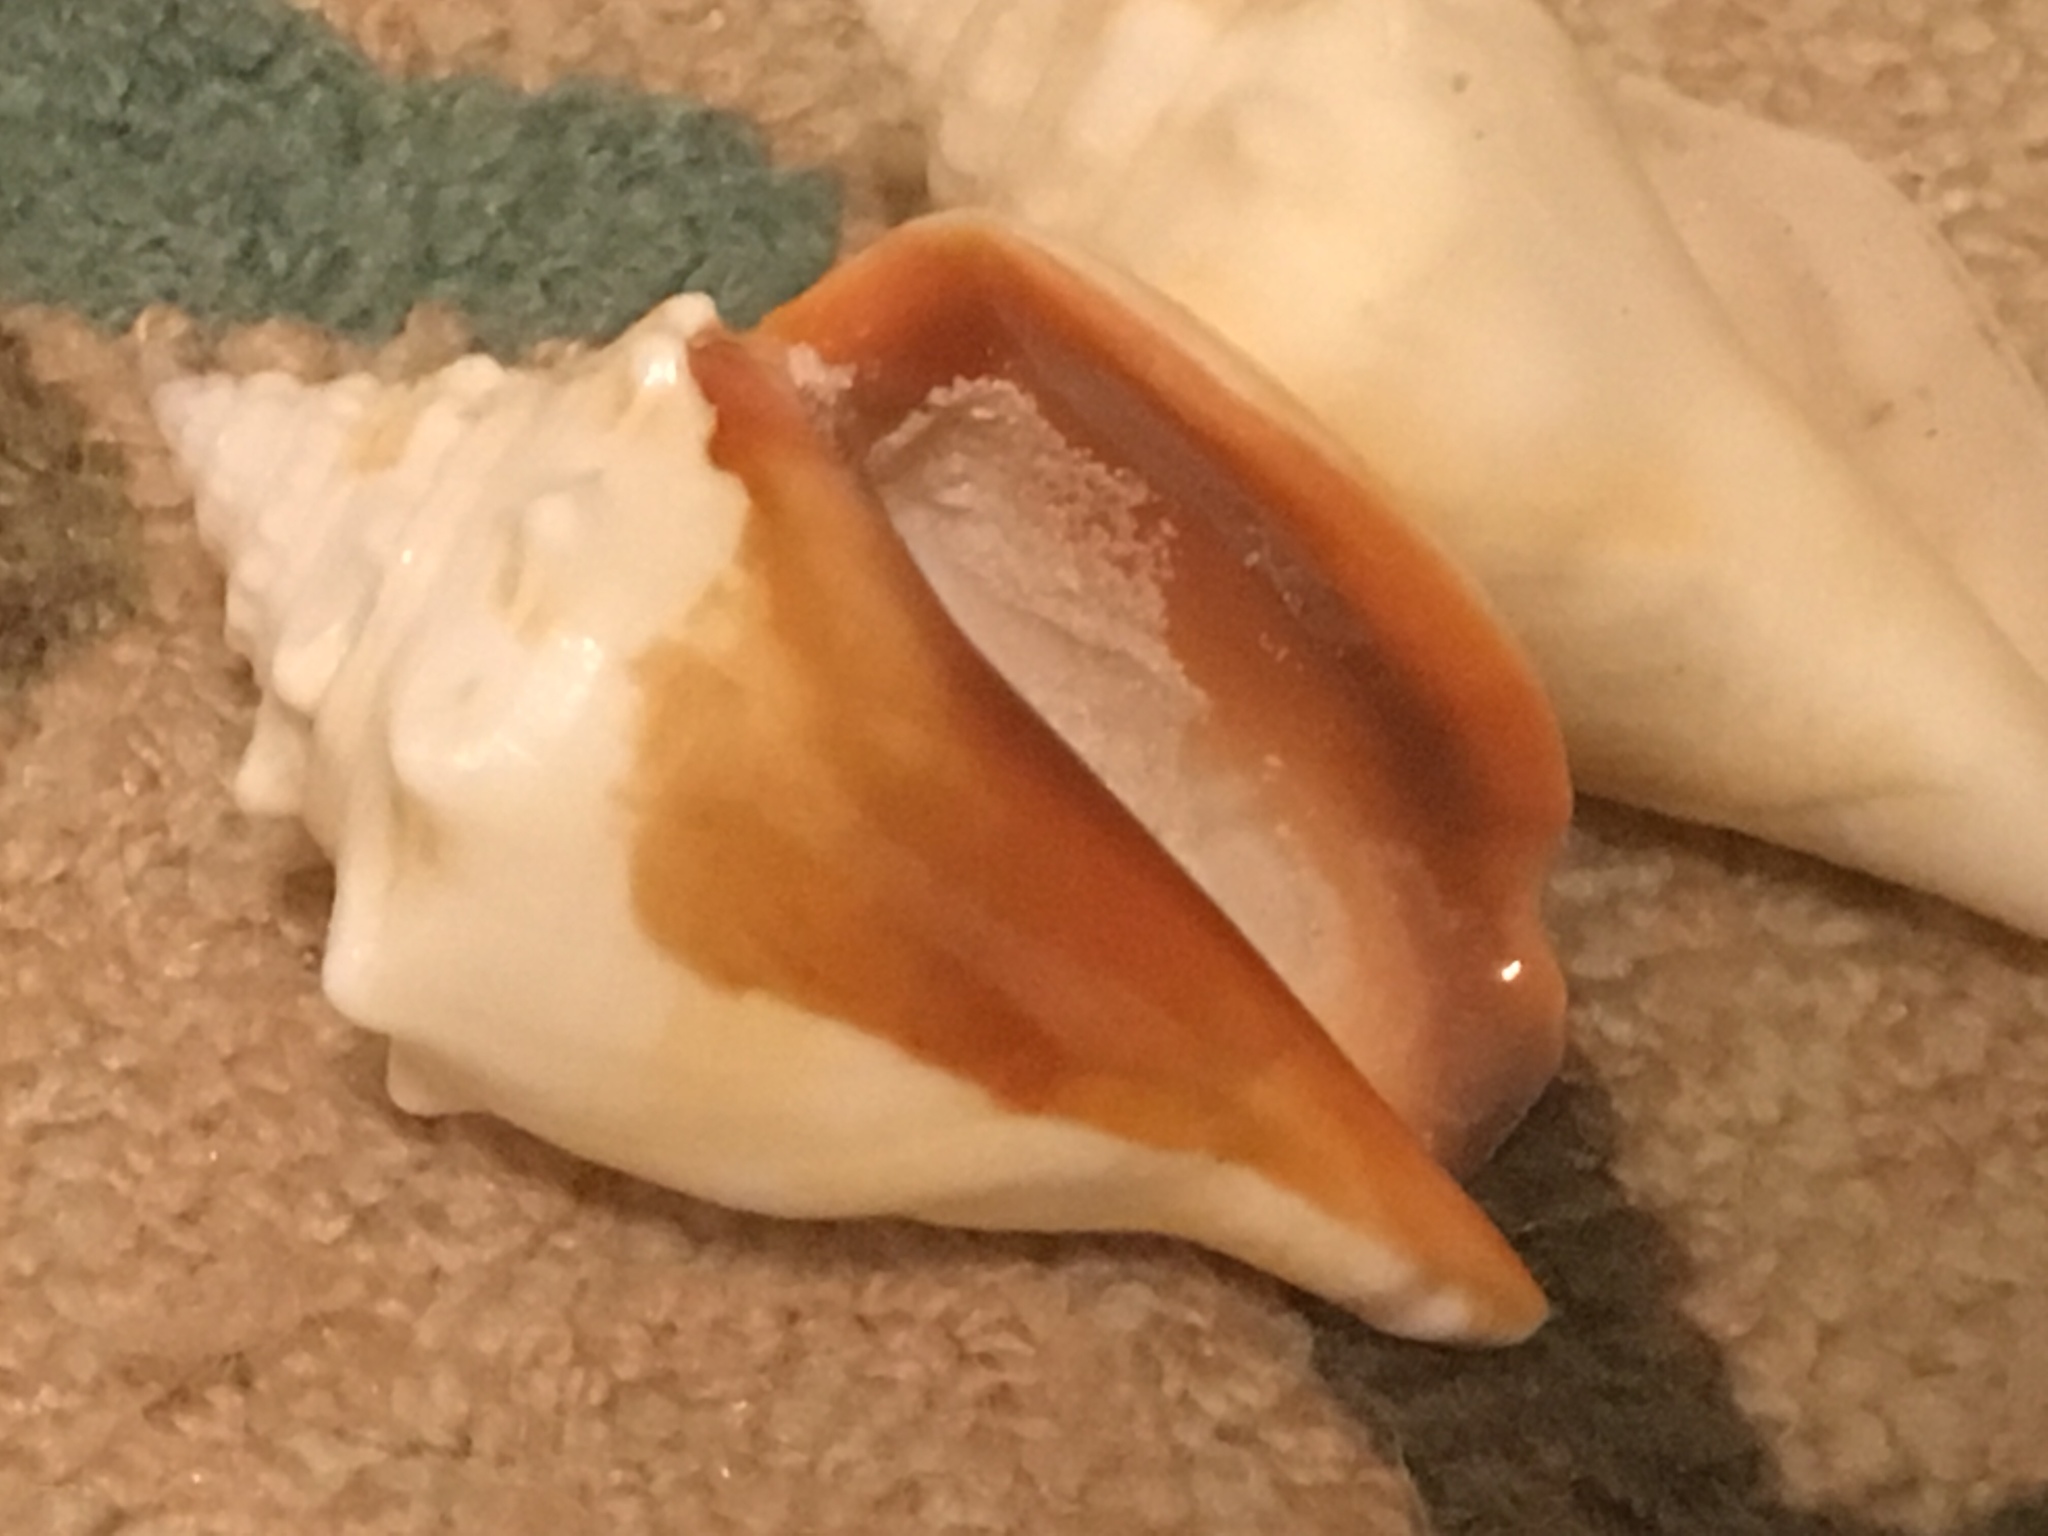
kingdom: Animalia
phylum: Mollusca
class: Gastropoda
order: Littorinimorpha
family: Strombidae
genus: Strombus
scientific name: Strombus alatus
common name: Florida fighting conch
